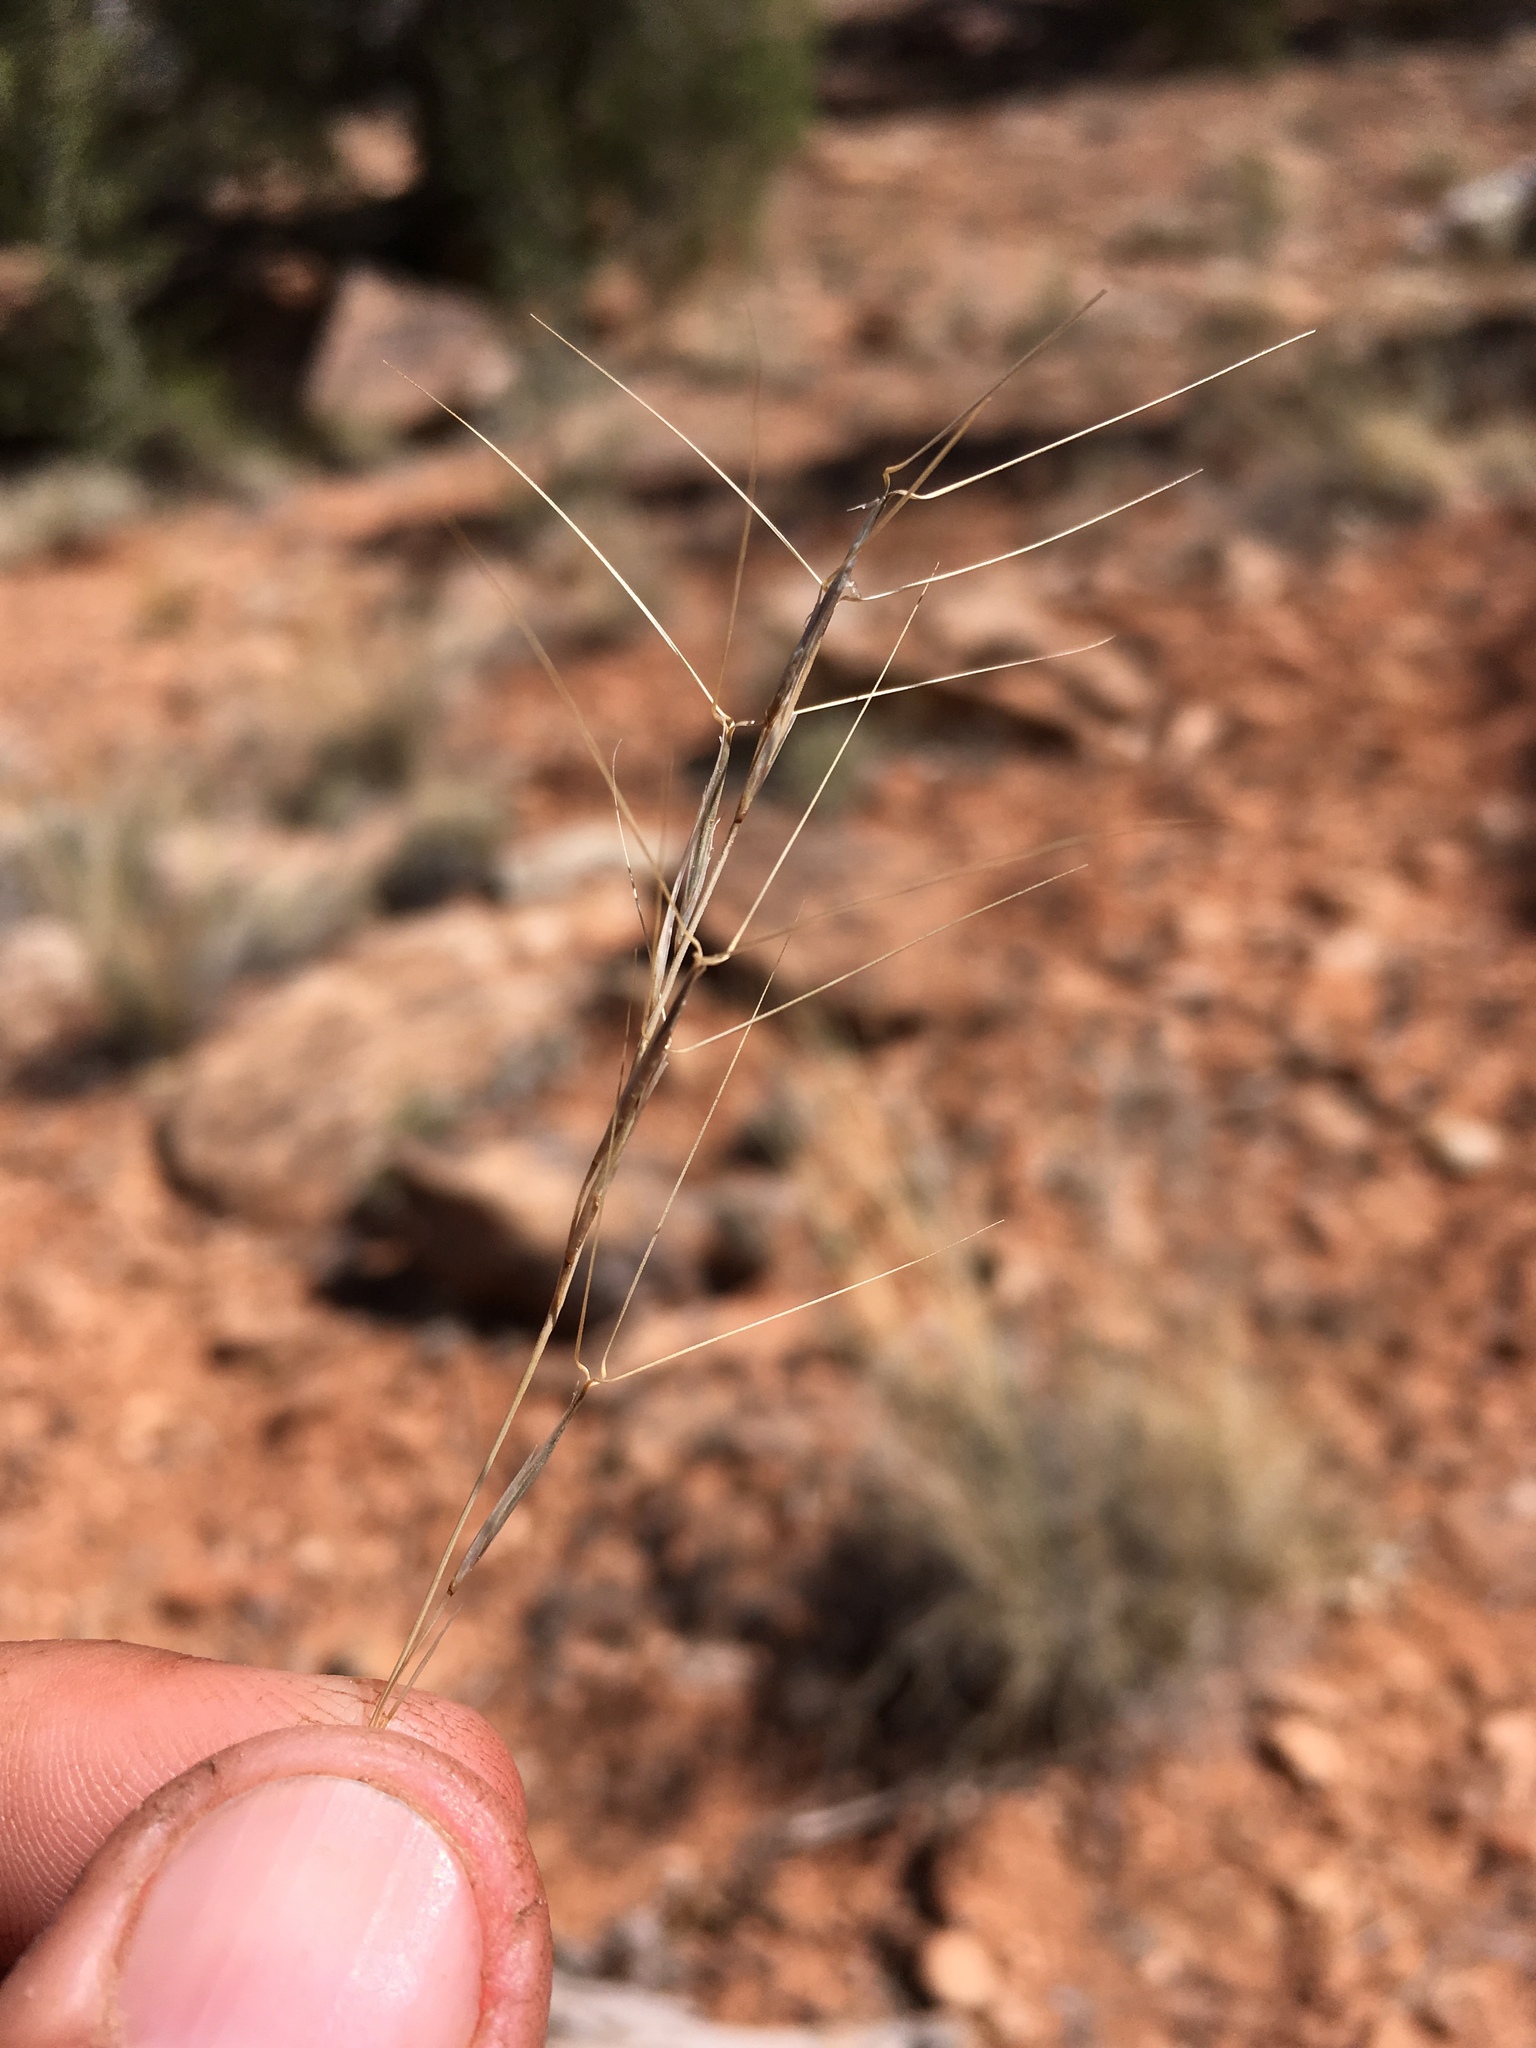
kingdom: Plantae
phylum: Tracheophyta
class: Liliopsida
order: Poales
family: Poaceae
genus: Aristida
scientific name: Aristida purpurea
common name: Purple threeawn
